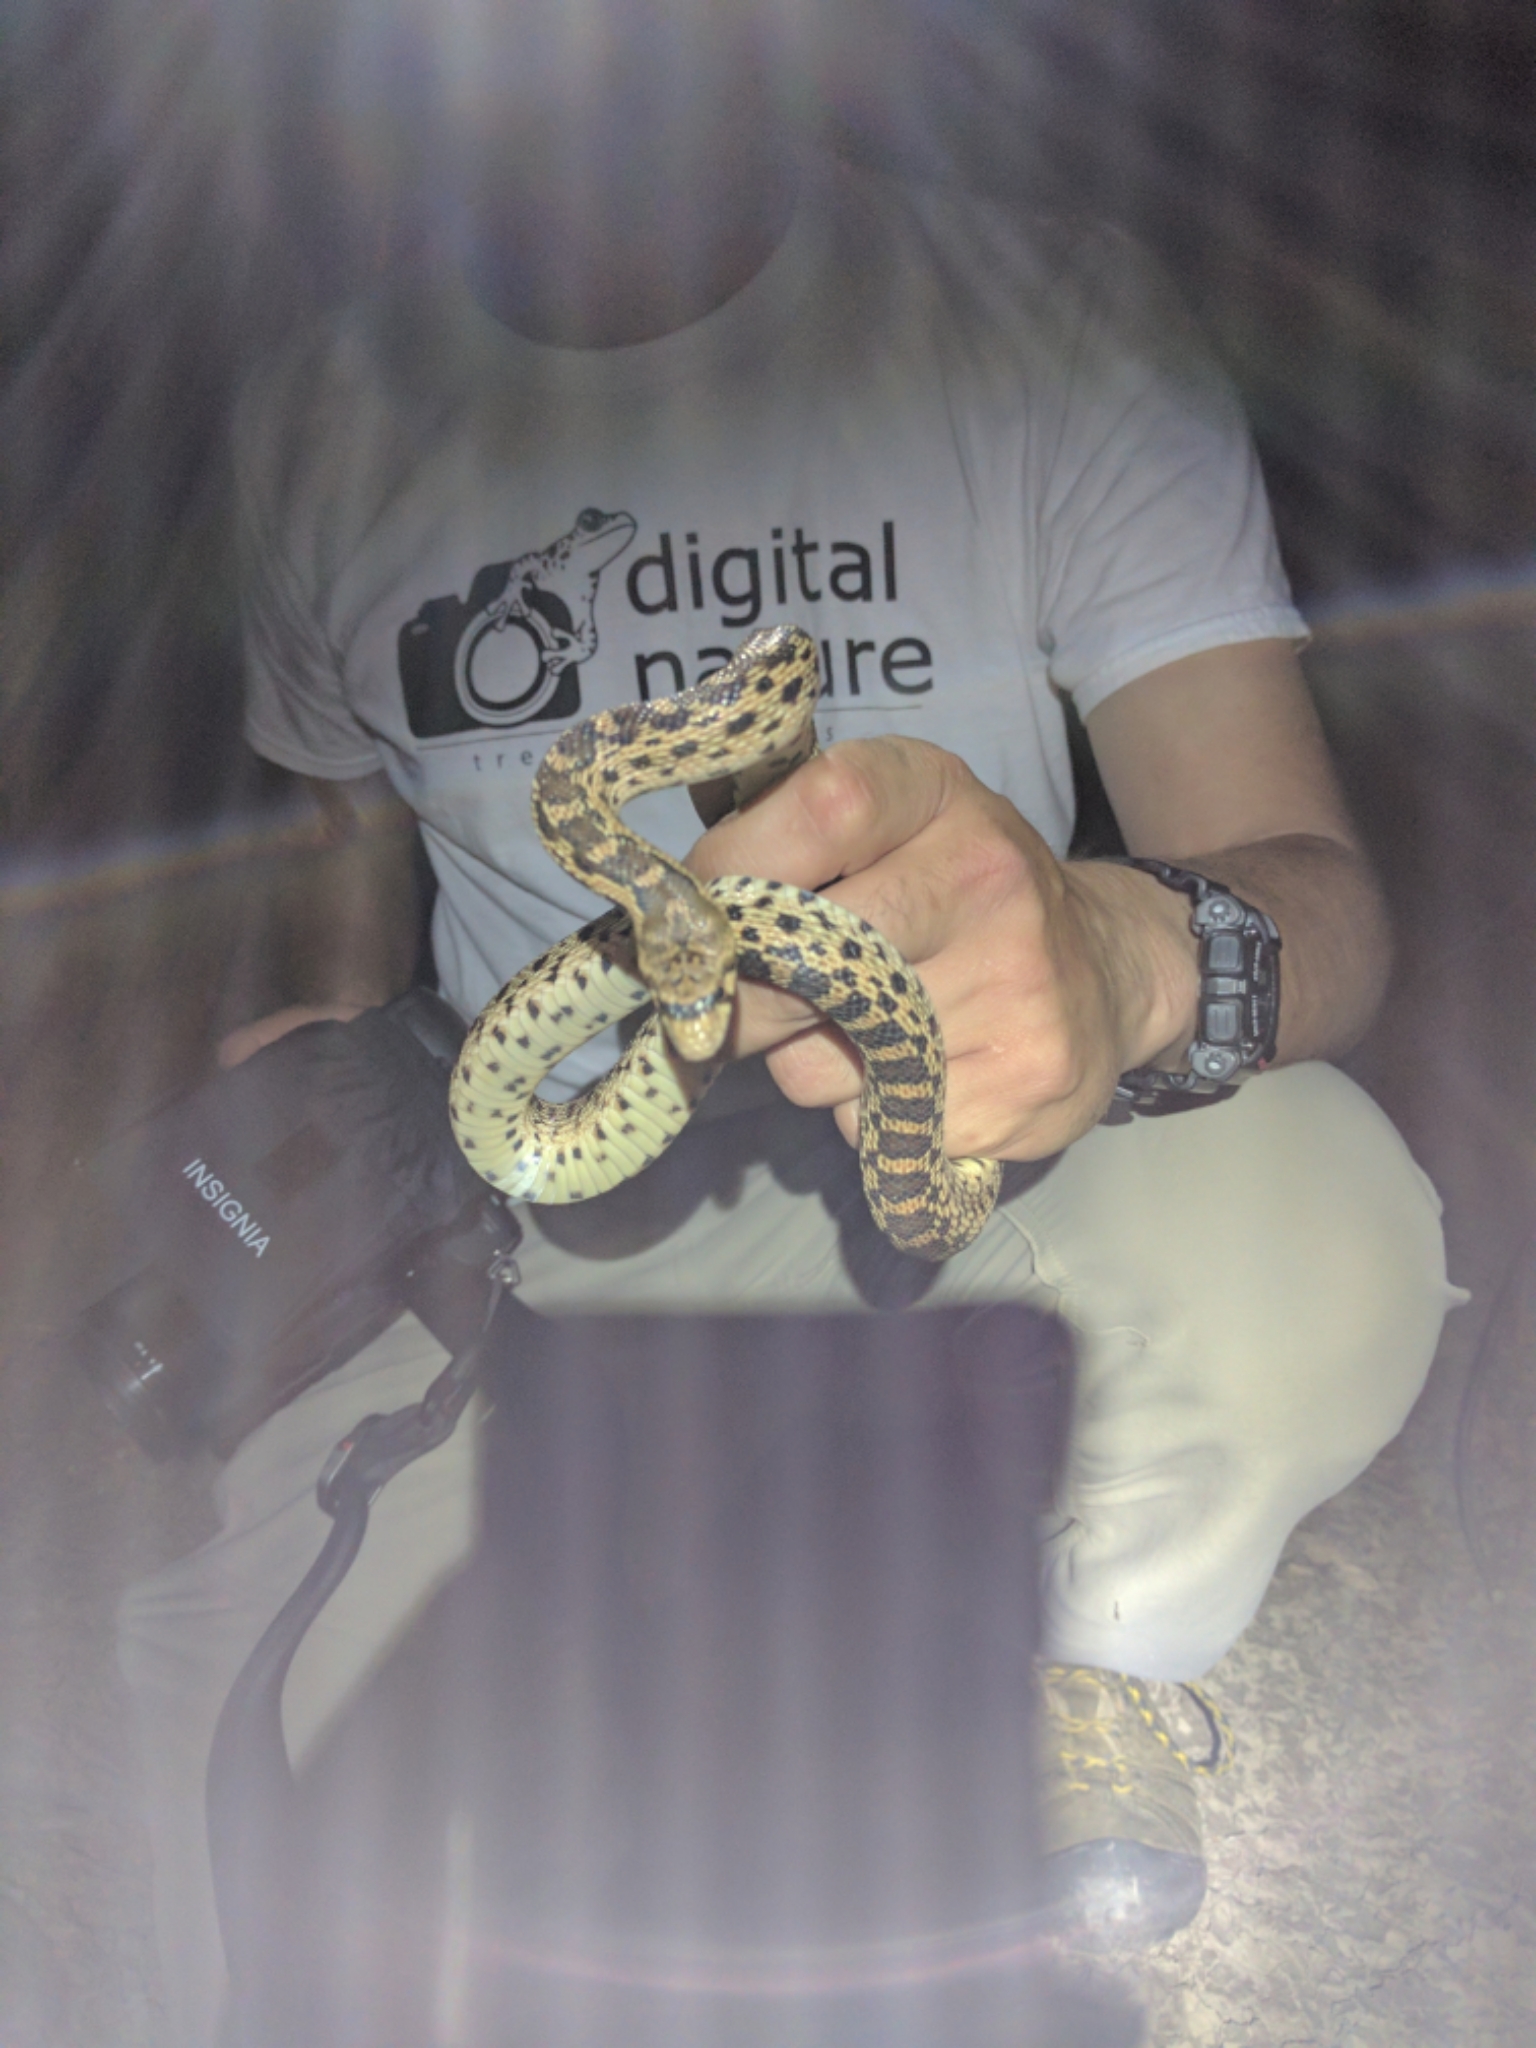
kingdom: Animalia
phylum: Chordata
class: Squamata
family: Colubridae
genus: Pituophis
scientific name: Pituophis catenifer
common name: Gopher snake
